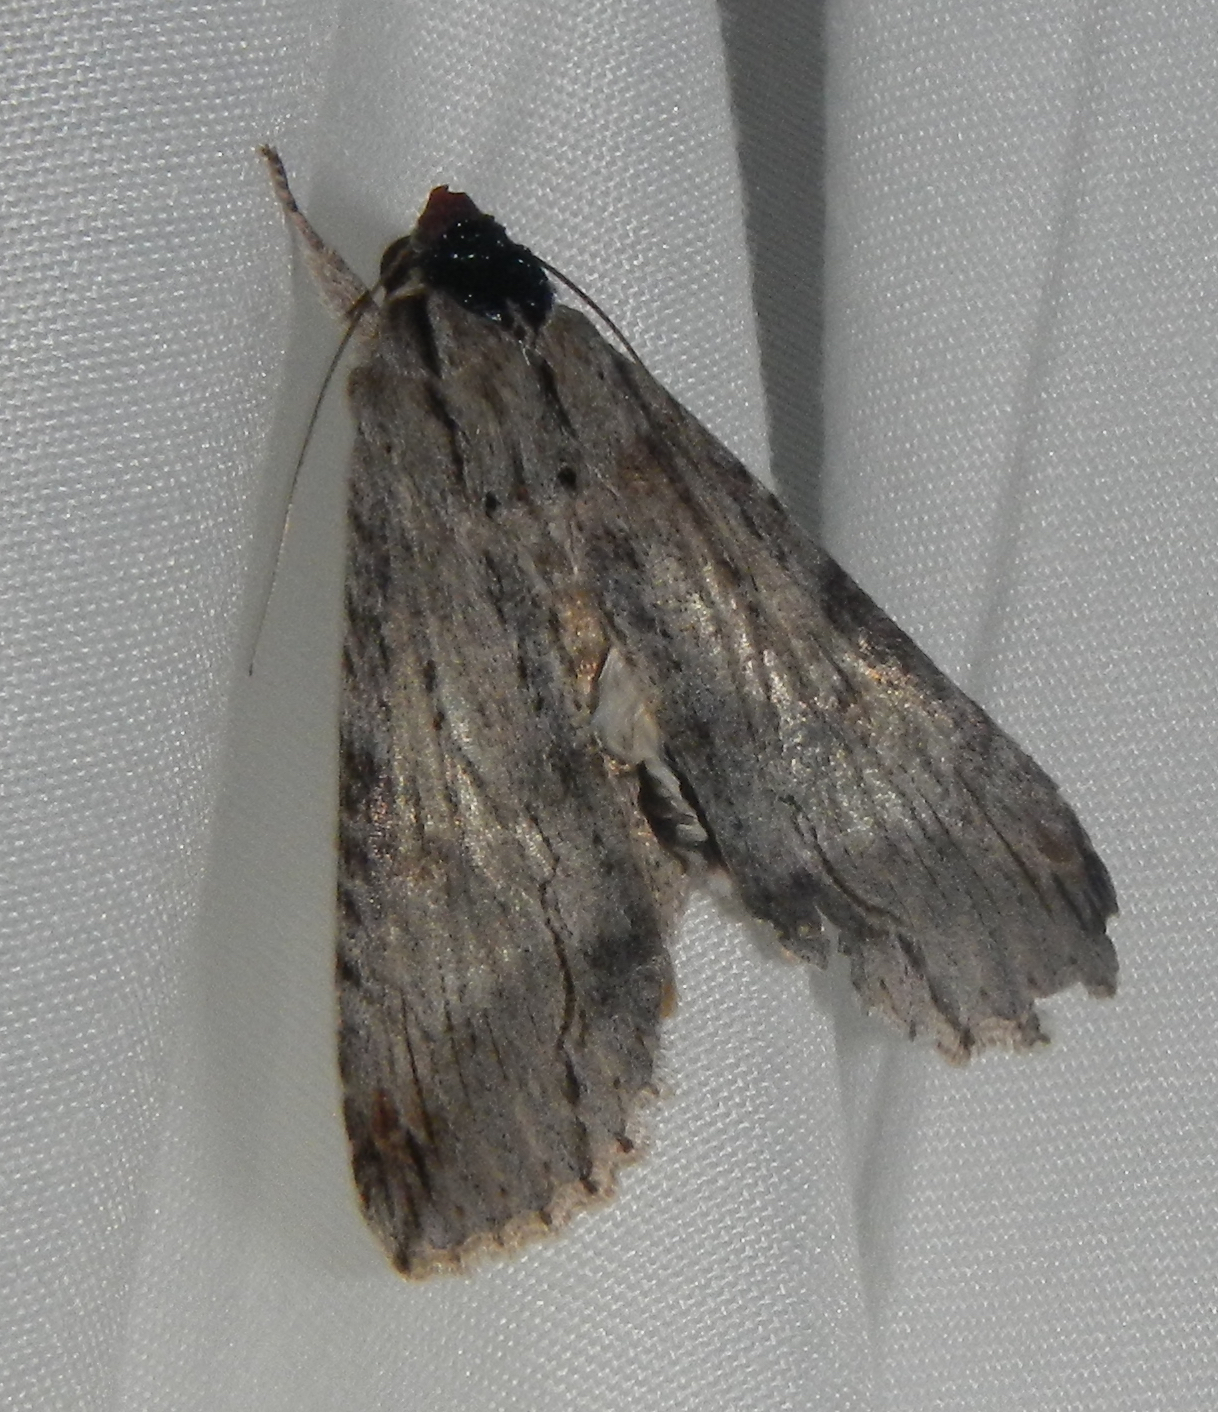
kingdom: Animalia
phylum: Arthropoda
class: Insecta
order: Lepidoptera
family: Erebidae
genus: Melipotis
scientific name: Melipotis acontioides
